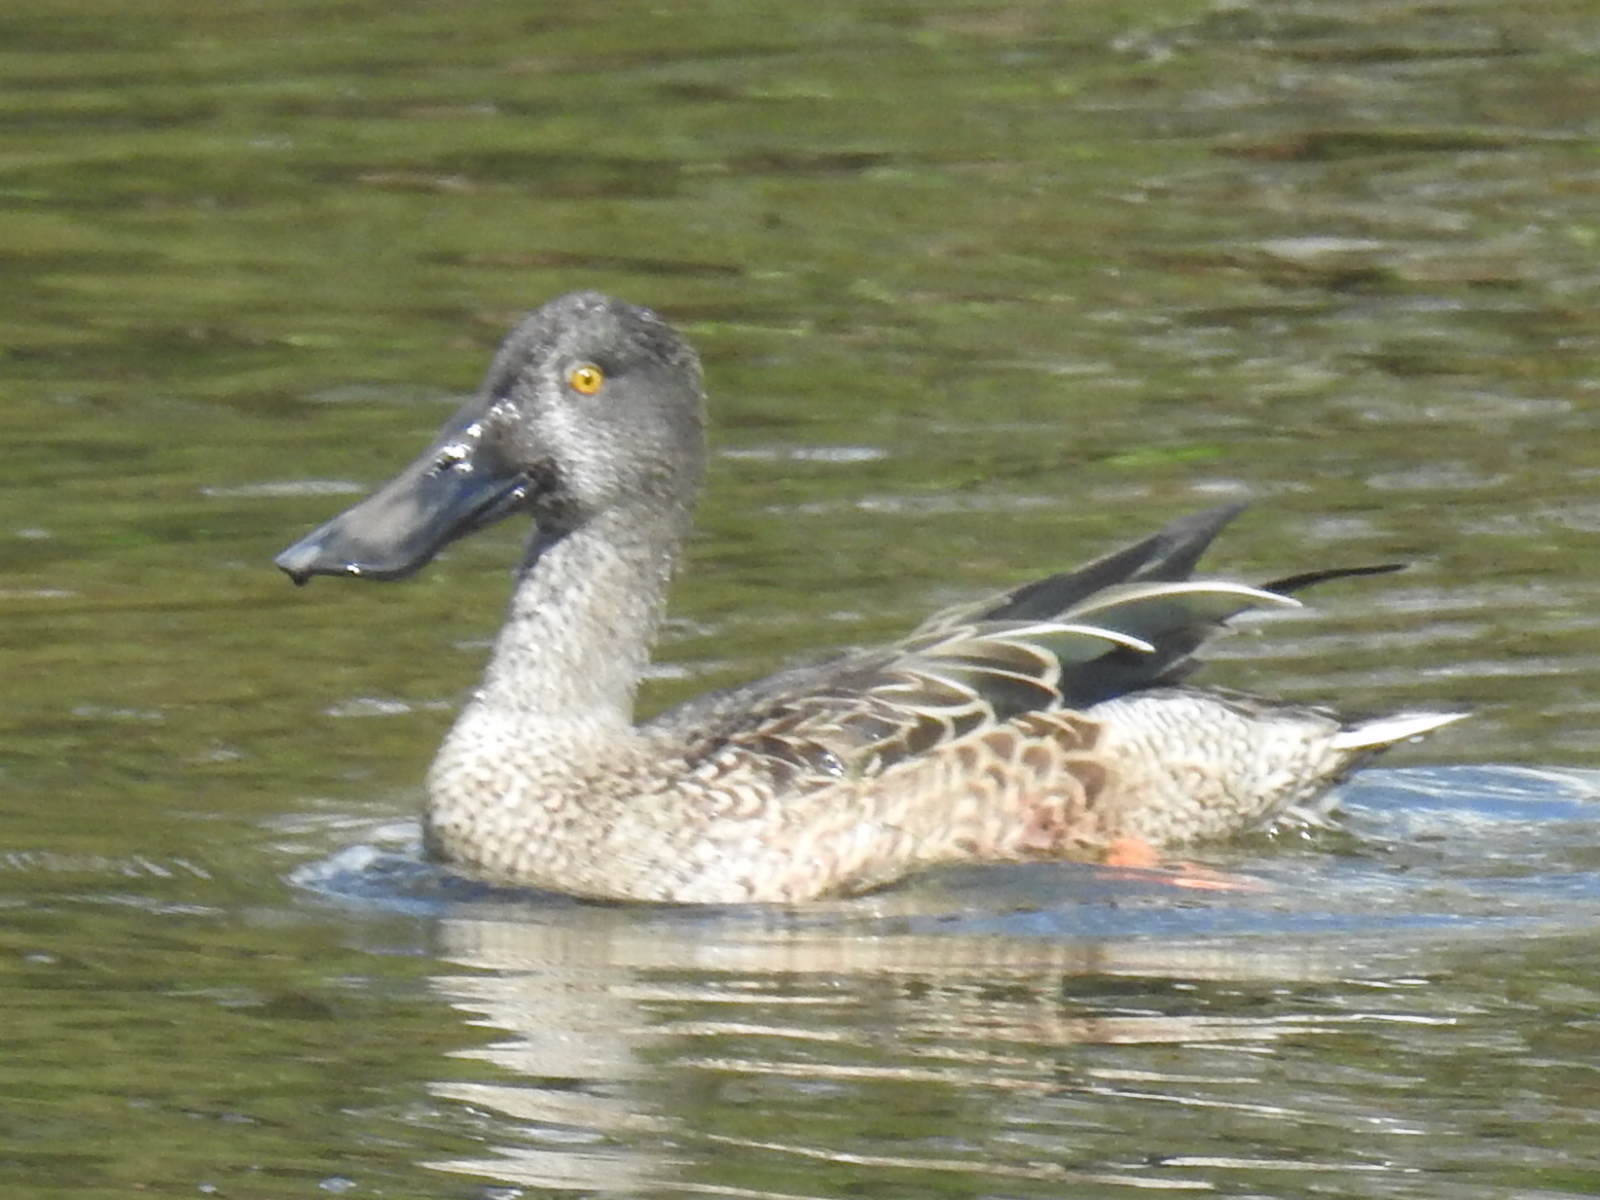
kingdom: Animalia
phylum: Chordata
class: Aves
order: Anseriformes
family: Anatidae
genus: Spatula
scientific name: Spatula clypeata
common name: Northern shoveler
